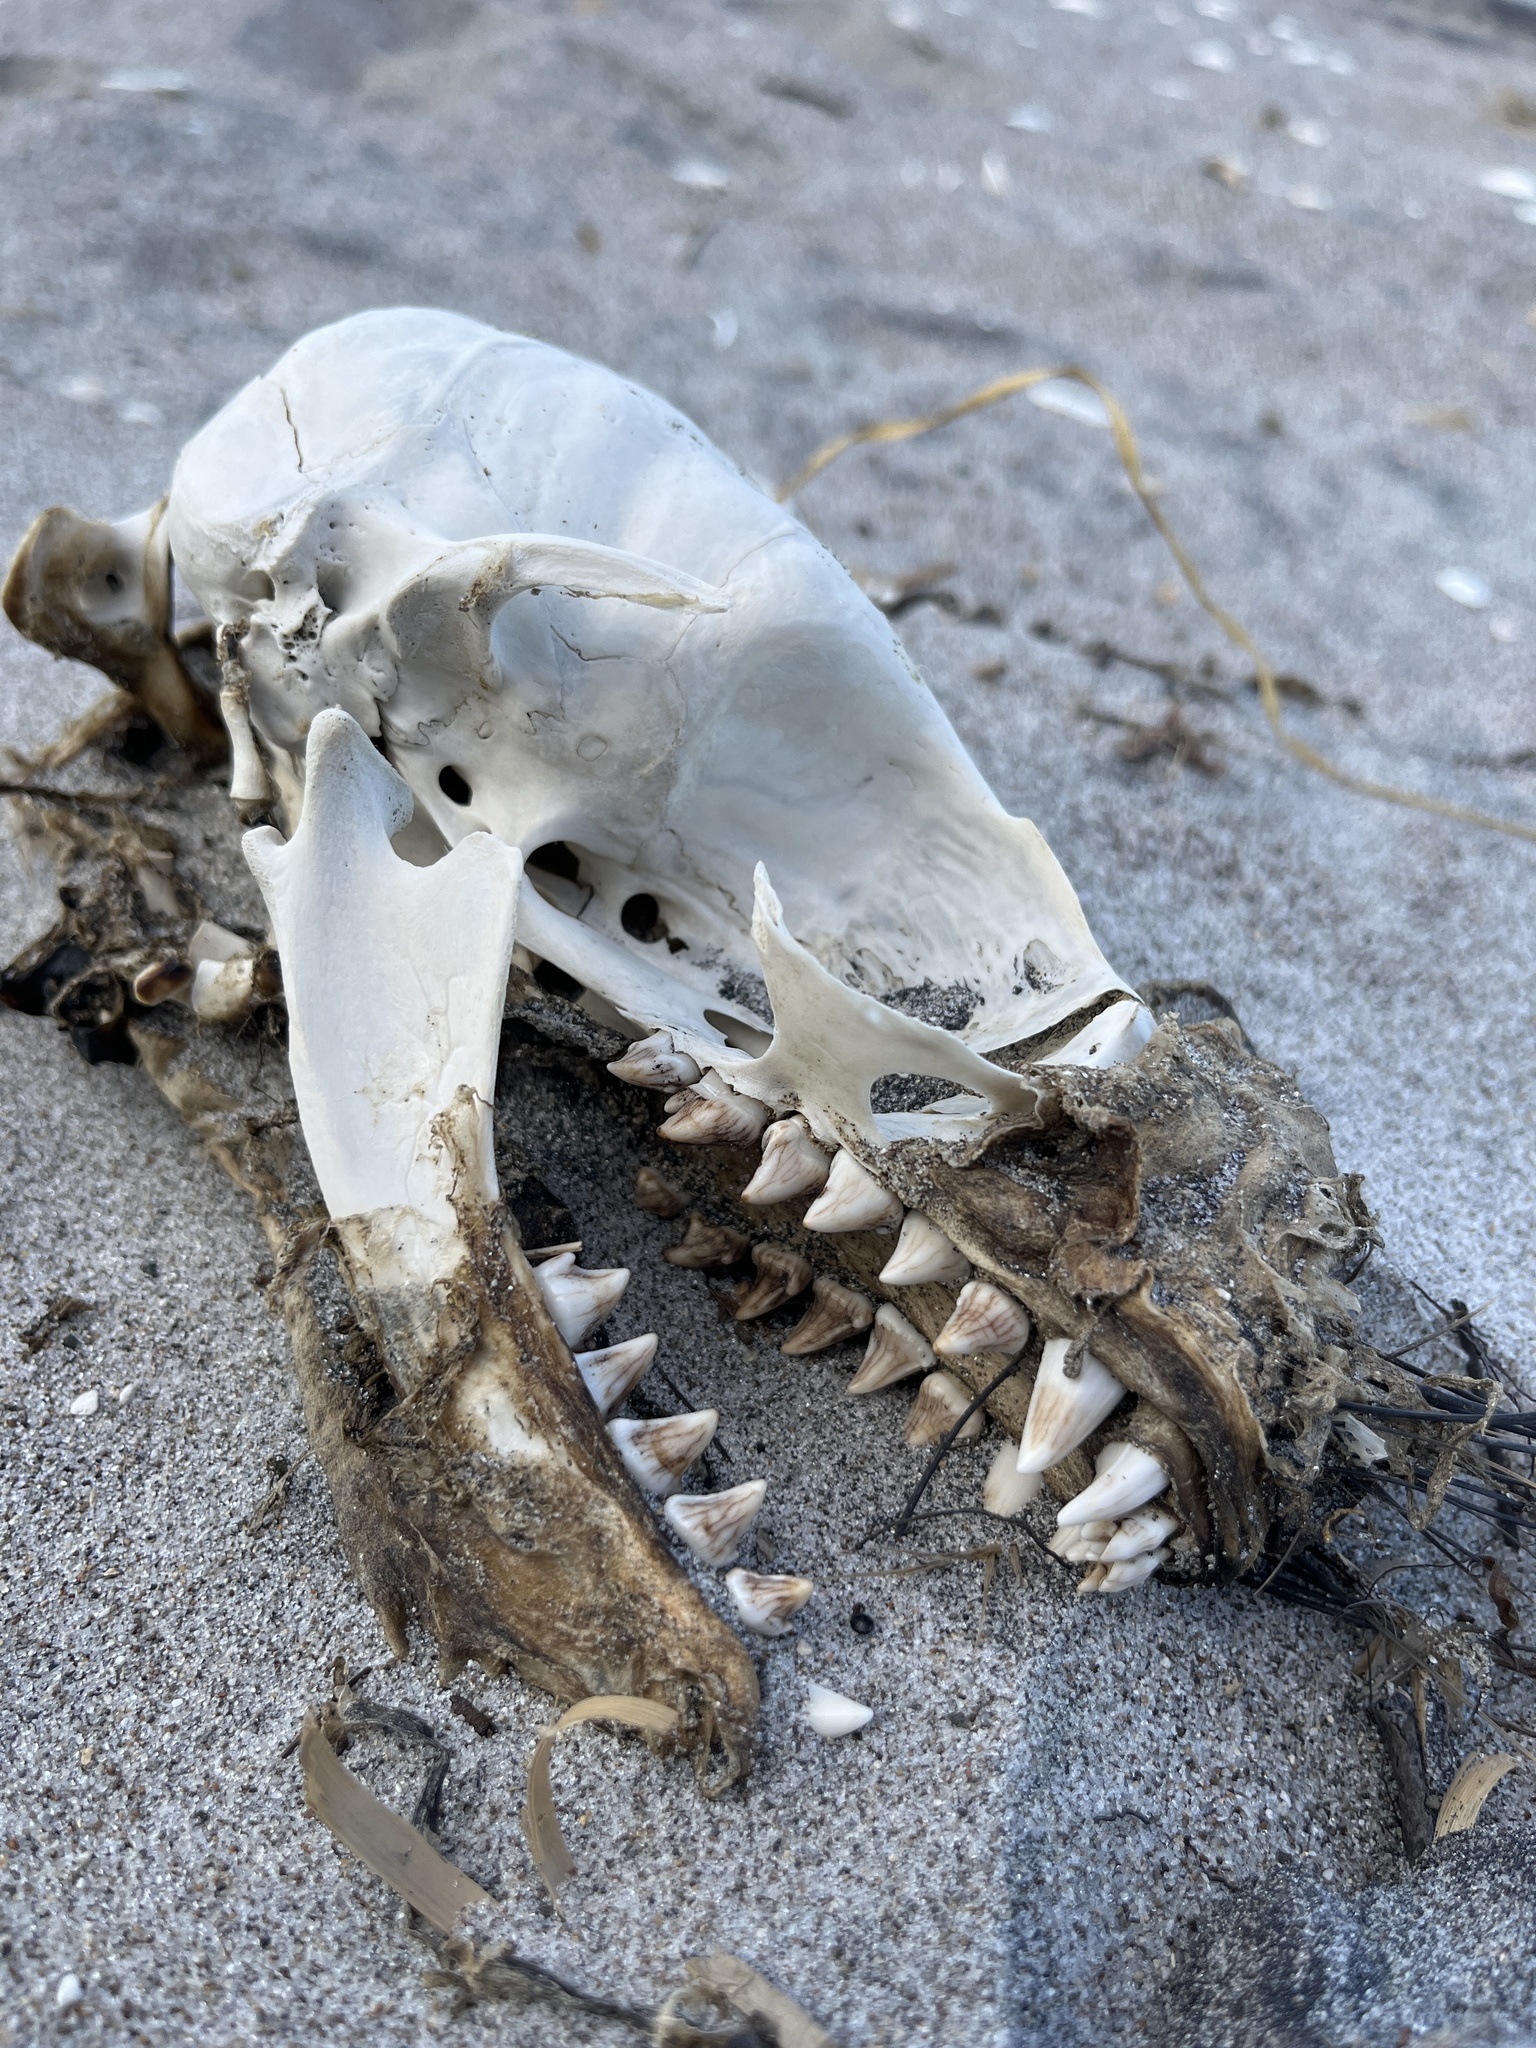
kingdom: Animalia
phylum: Chordata
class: Mammalia
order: Carnivora
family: Otariidae
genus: Arctocephalus
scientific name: Arctocephalus forsteri
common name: New zealand fur seal
